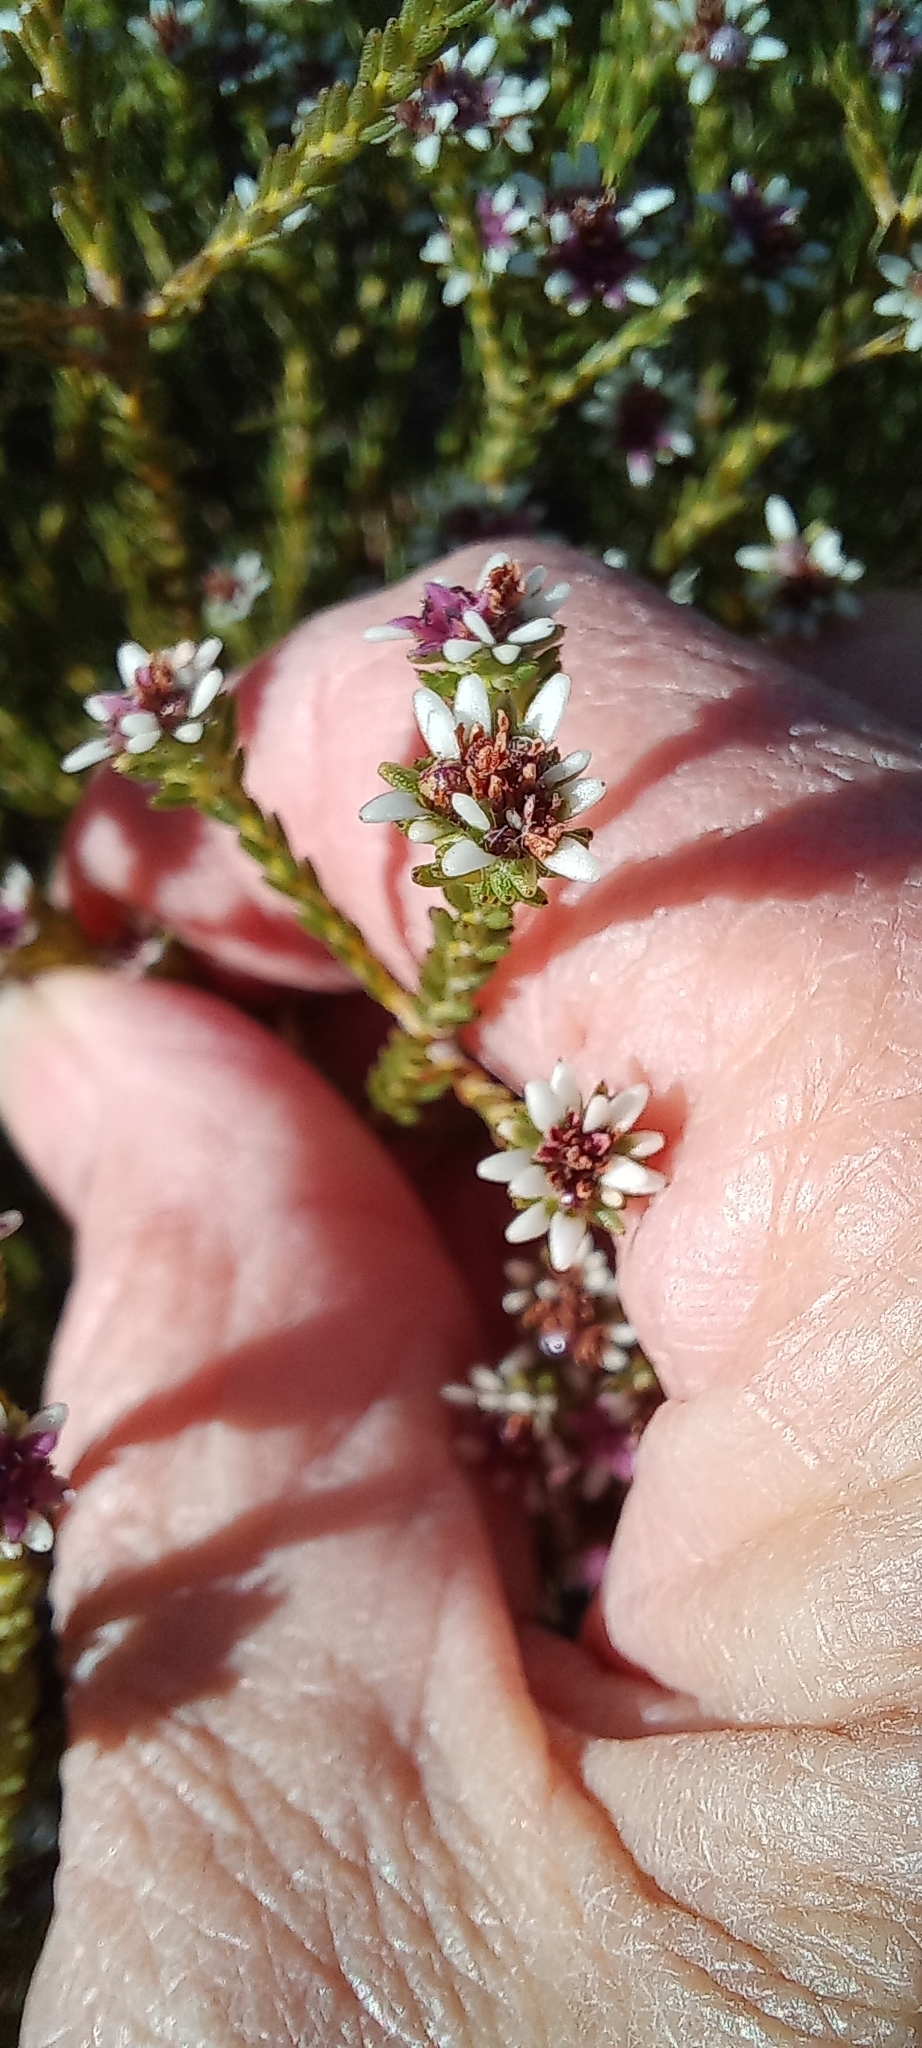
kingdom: Plantae
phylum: Tracheophyta
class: Magnoliopsida
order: Bruniales
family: Bruniaceae
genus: Staavia
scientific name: Staavia radiata
